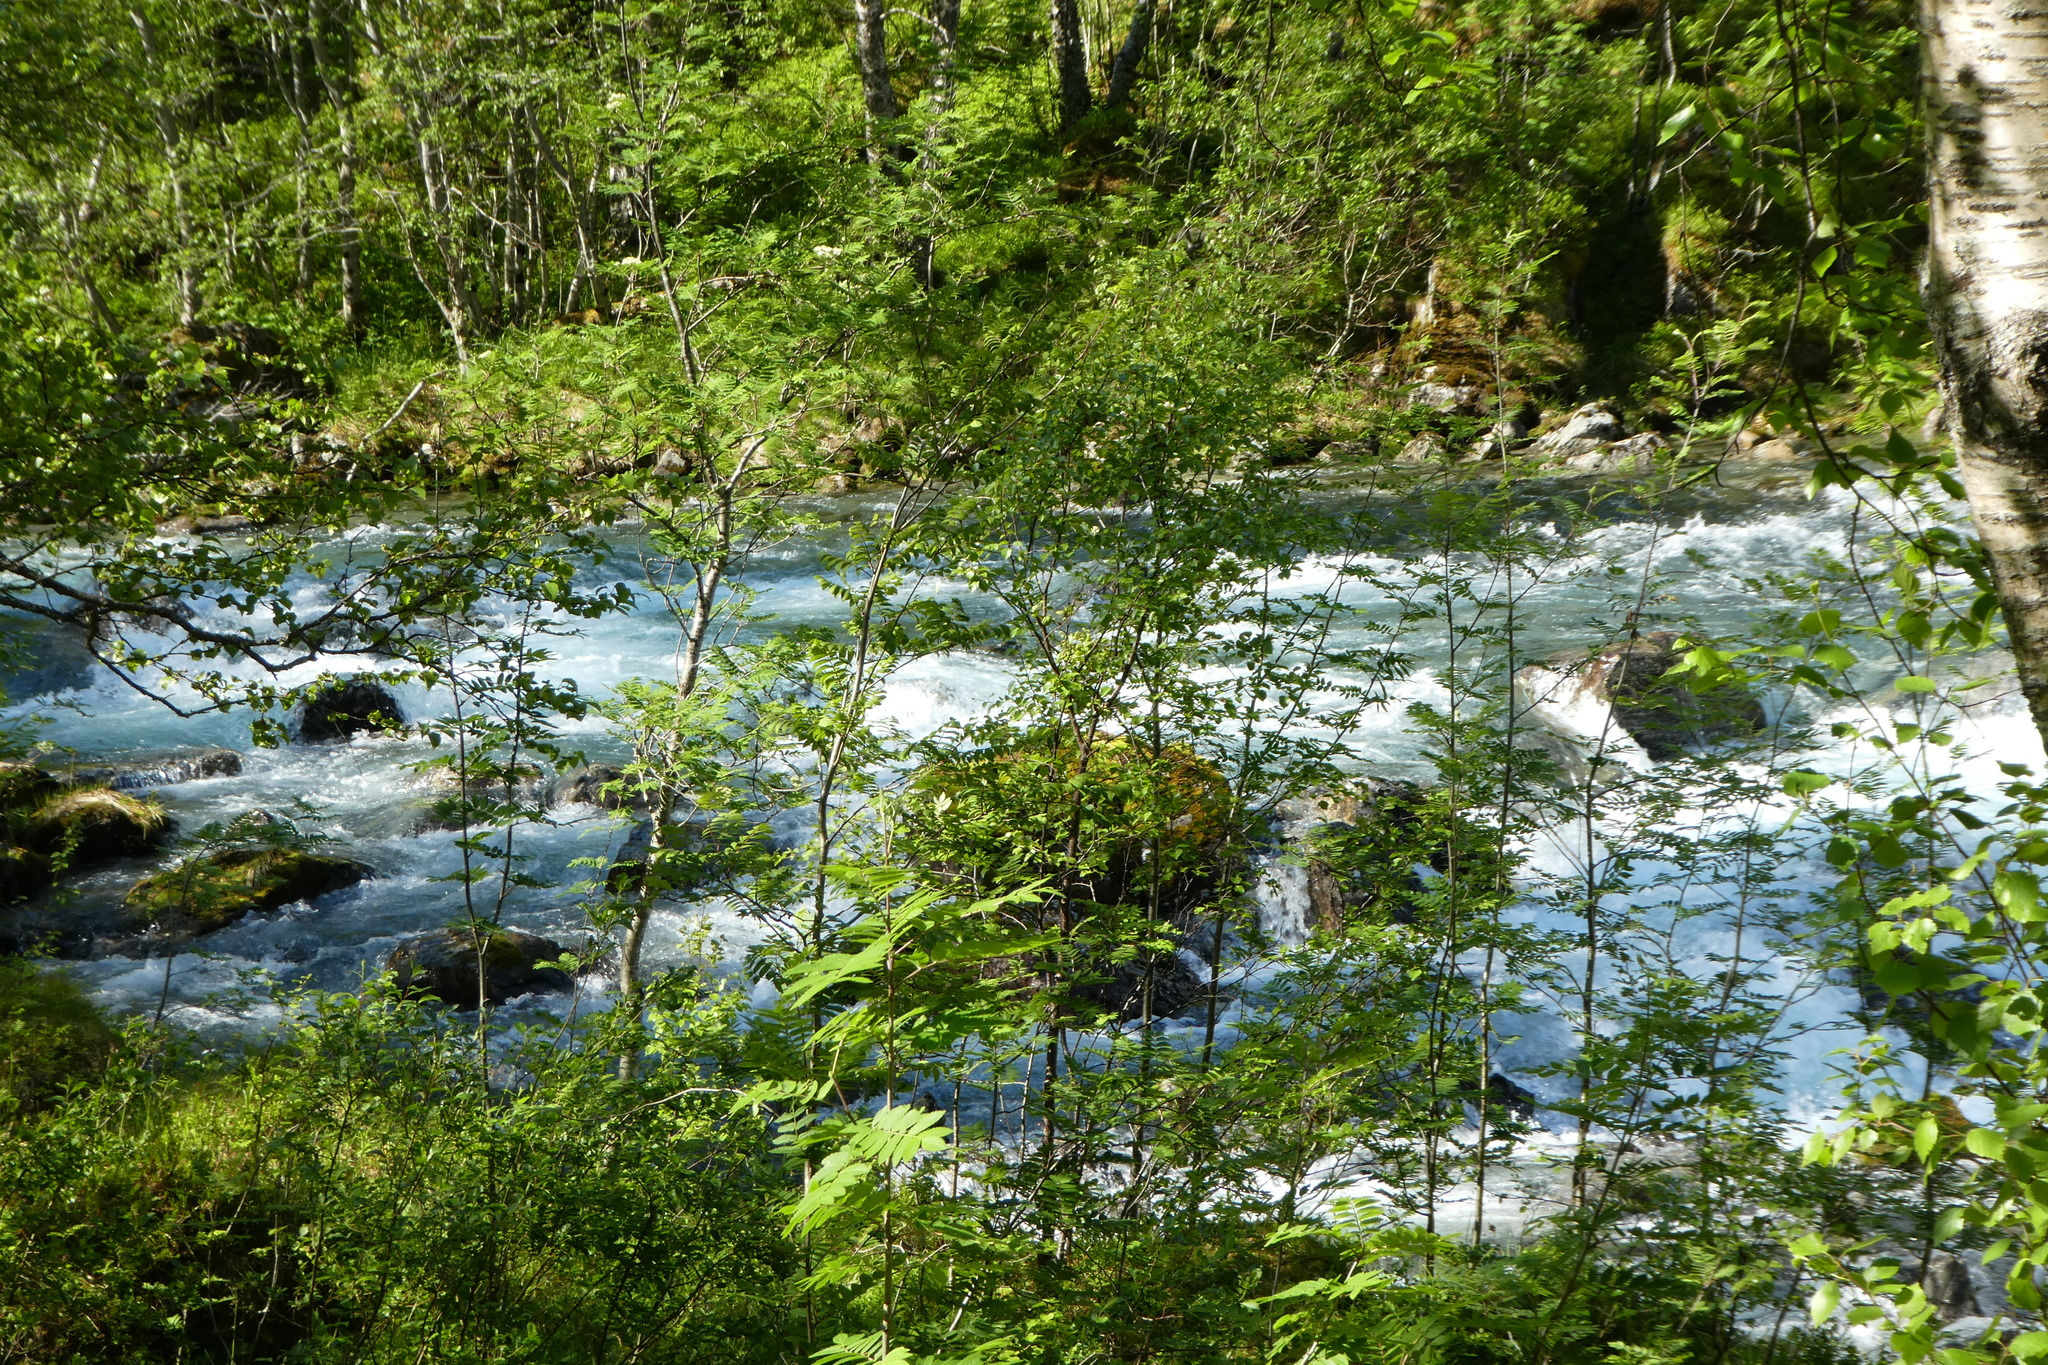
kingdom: Plantae
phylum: Tracheophyta
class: Magnoliopsida
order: Rosales
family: Rosaceae
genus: Sorbus
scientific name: Sorbus aucuparia
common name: Rowan
